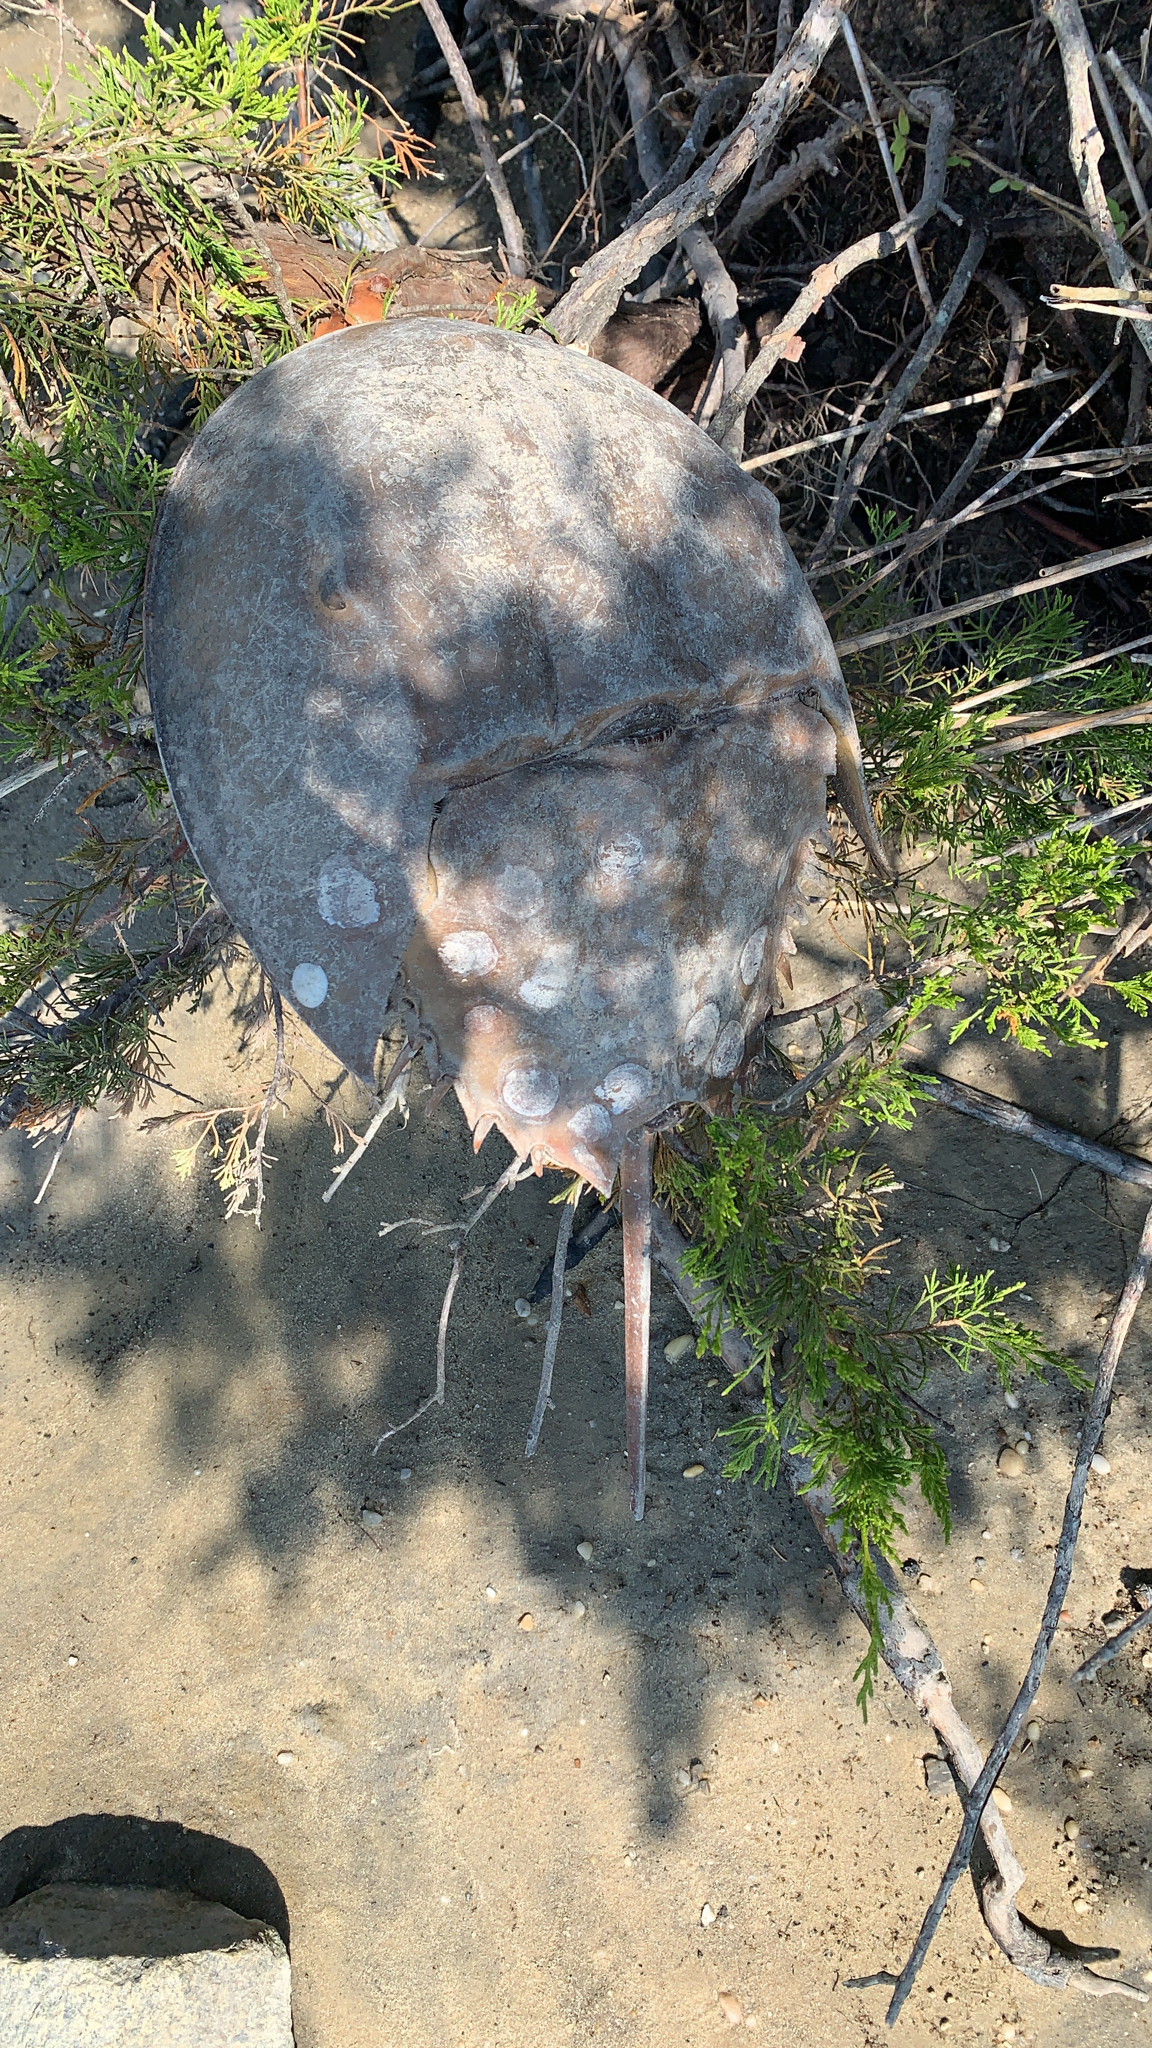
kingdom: Animalia
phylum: Arthropoda
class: Merostomata
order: Xiphosurida
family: Limulidae
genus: Limulus
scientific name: Limulus polyphemus
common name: Horseshoe crab
